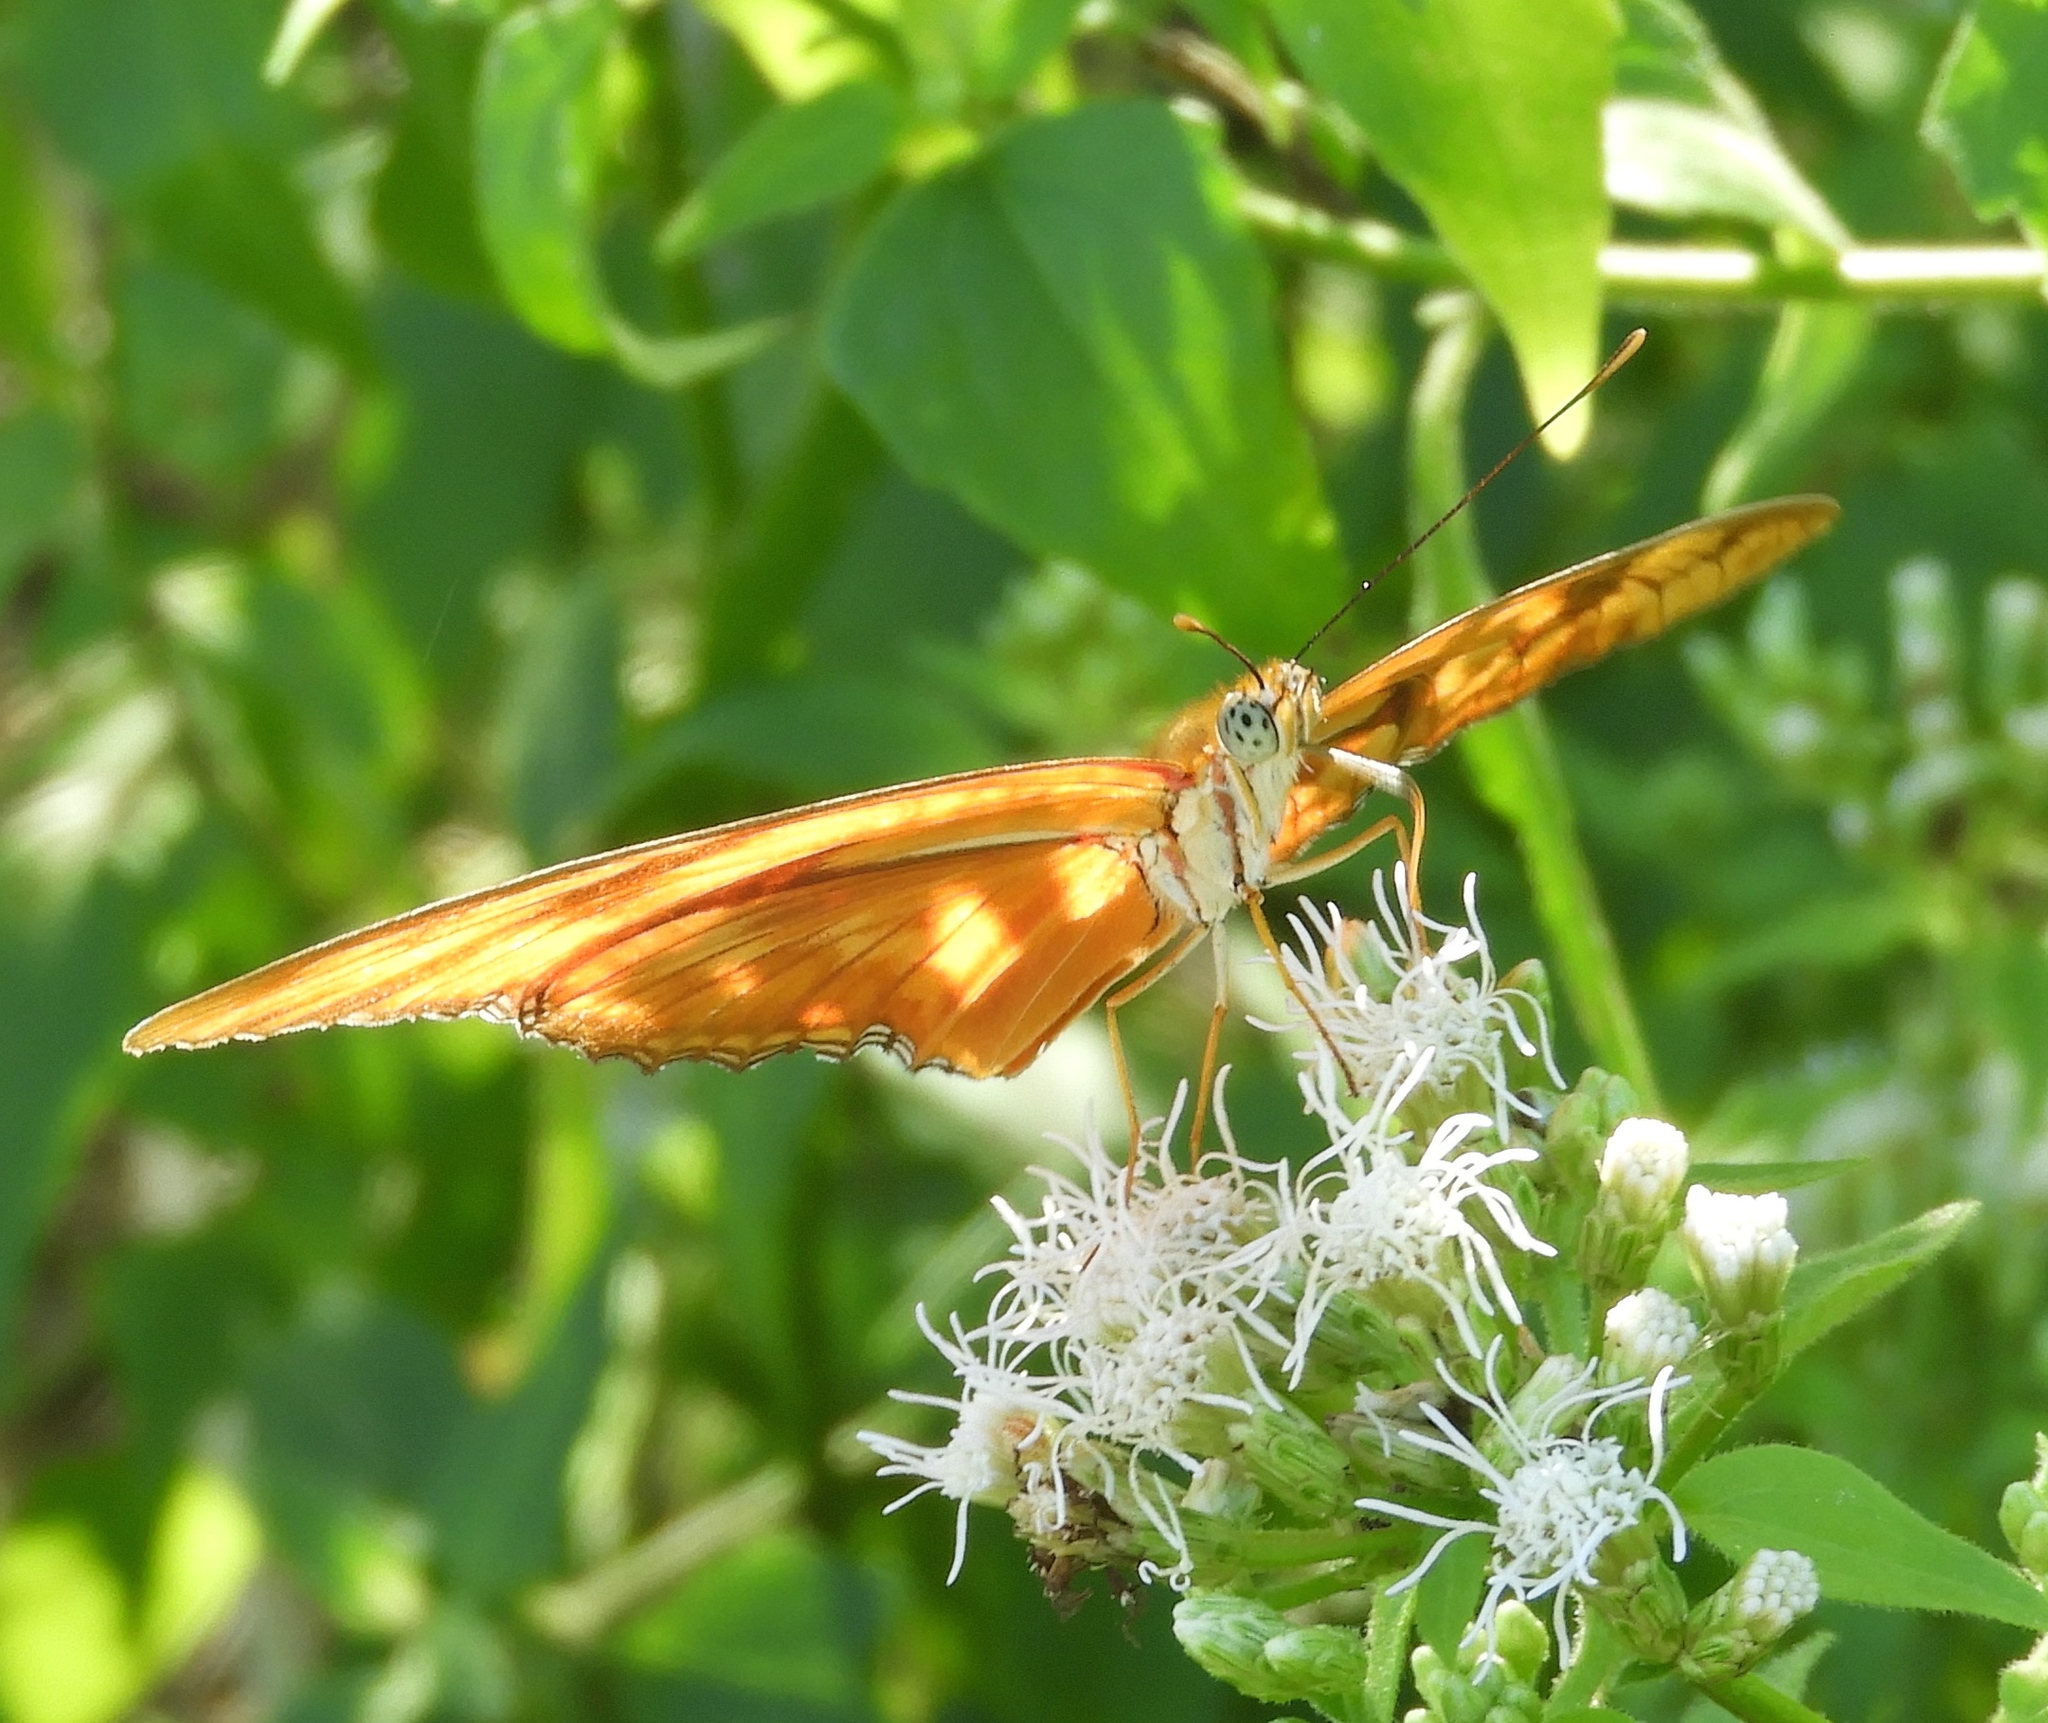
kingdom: Animalia
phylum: Arthropoda
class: Insecta
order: Lepidoptera
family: Nymphalidae
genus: Dryas
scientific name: Dryas iulia
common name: Flambeau
